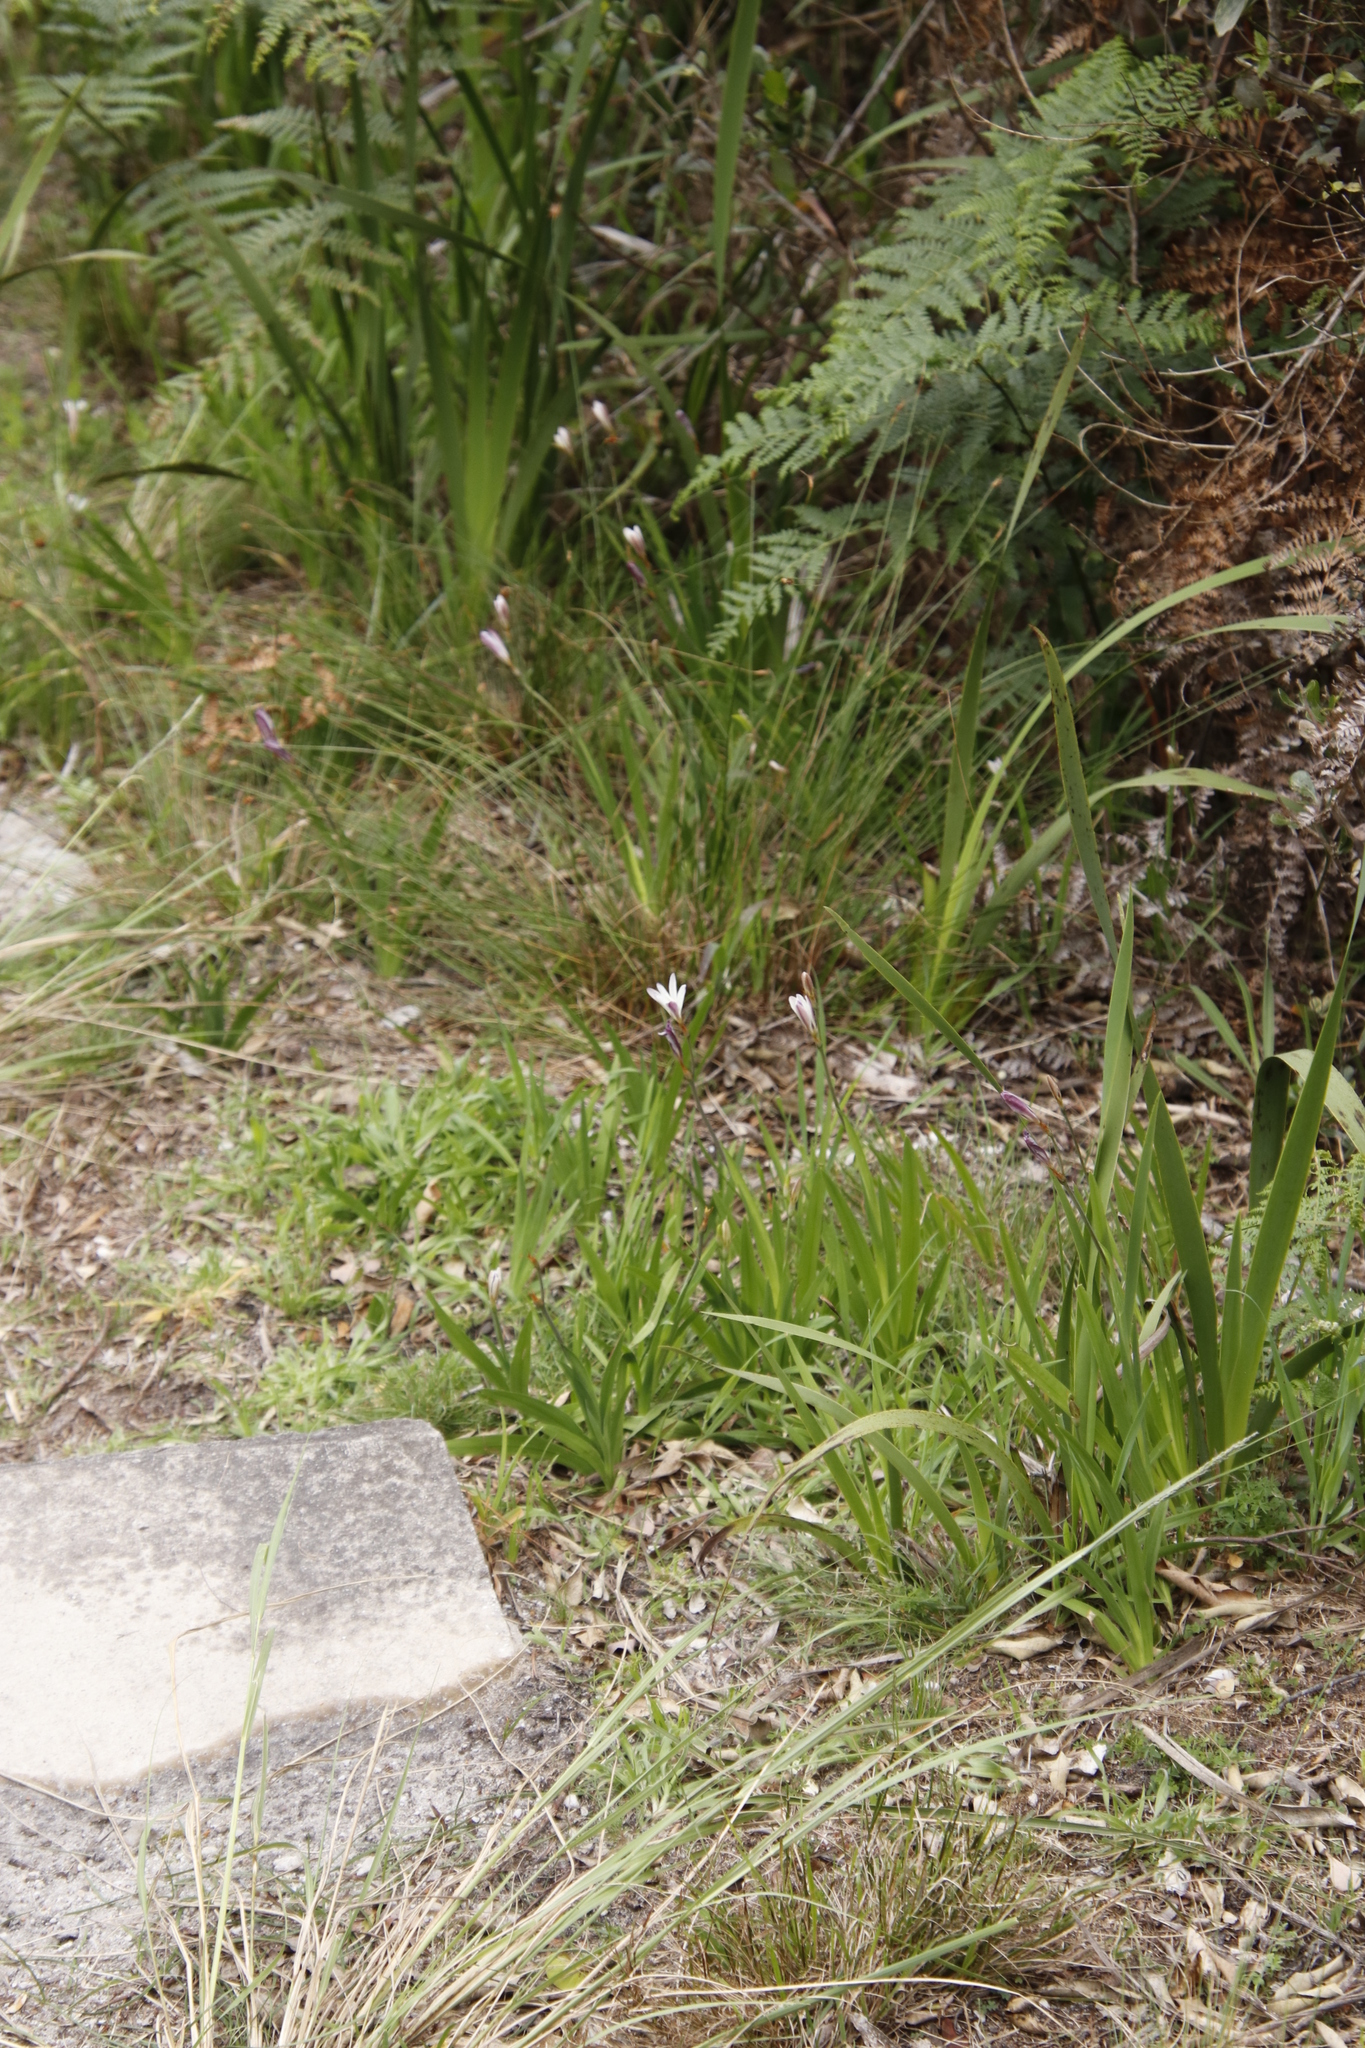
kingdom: Plantae
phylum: Tracheophyta
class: Liliopsida
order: Asparagales
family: Iridaceae
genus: Sparaxis
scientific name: Sparaxis bulbifera
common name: Harlequin-flower
